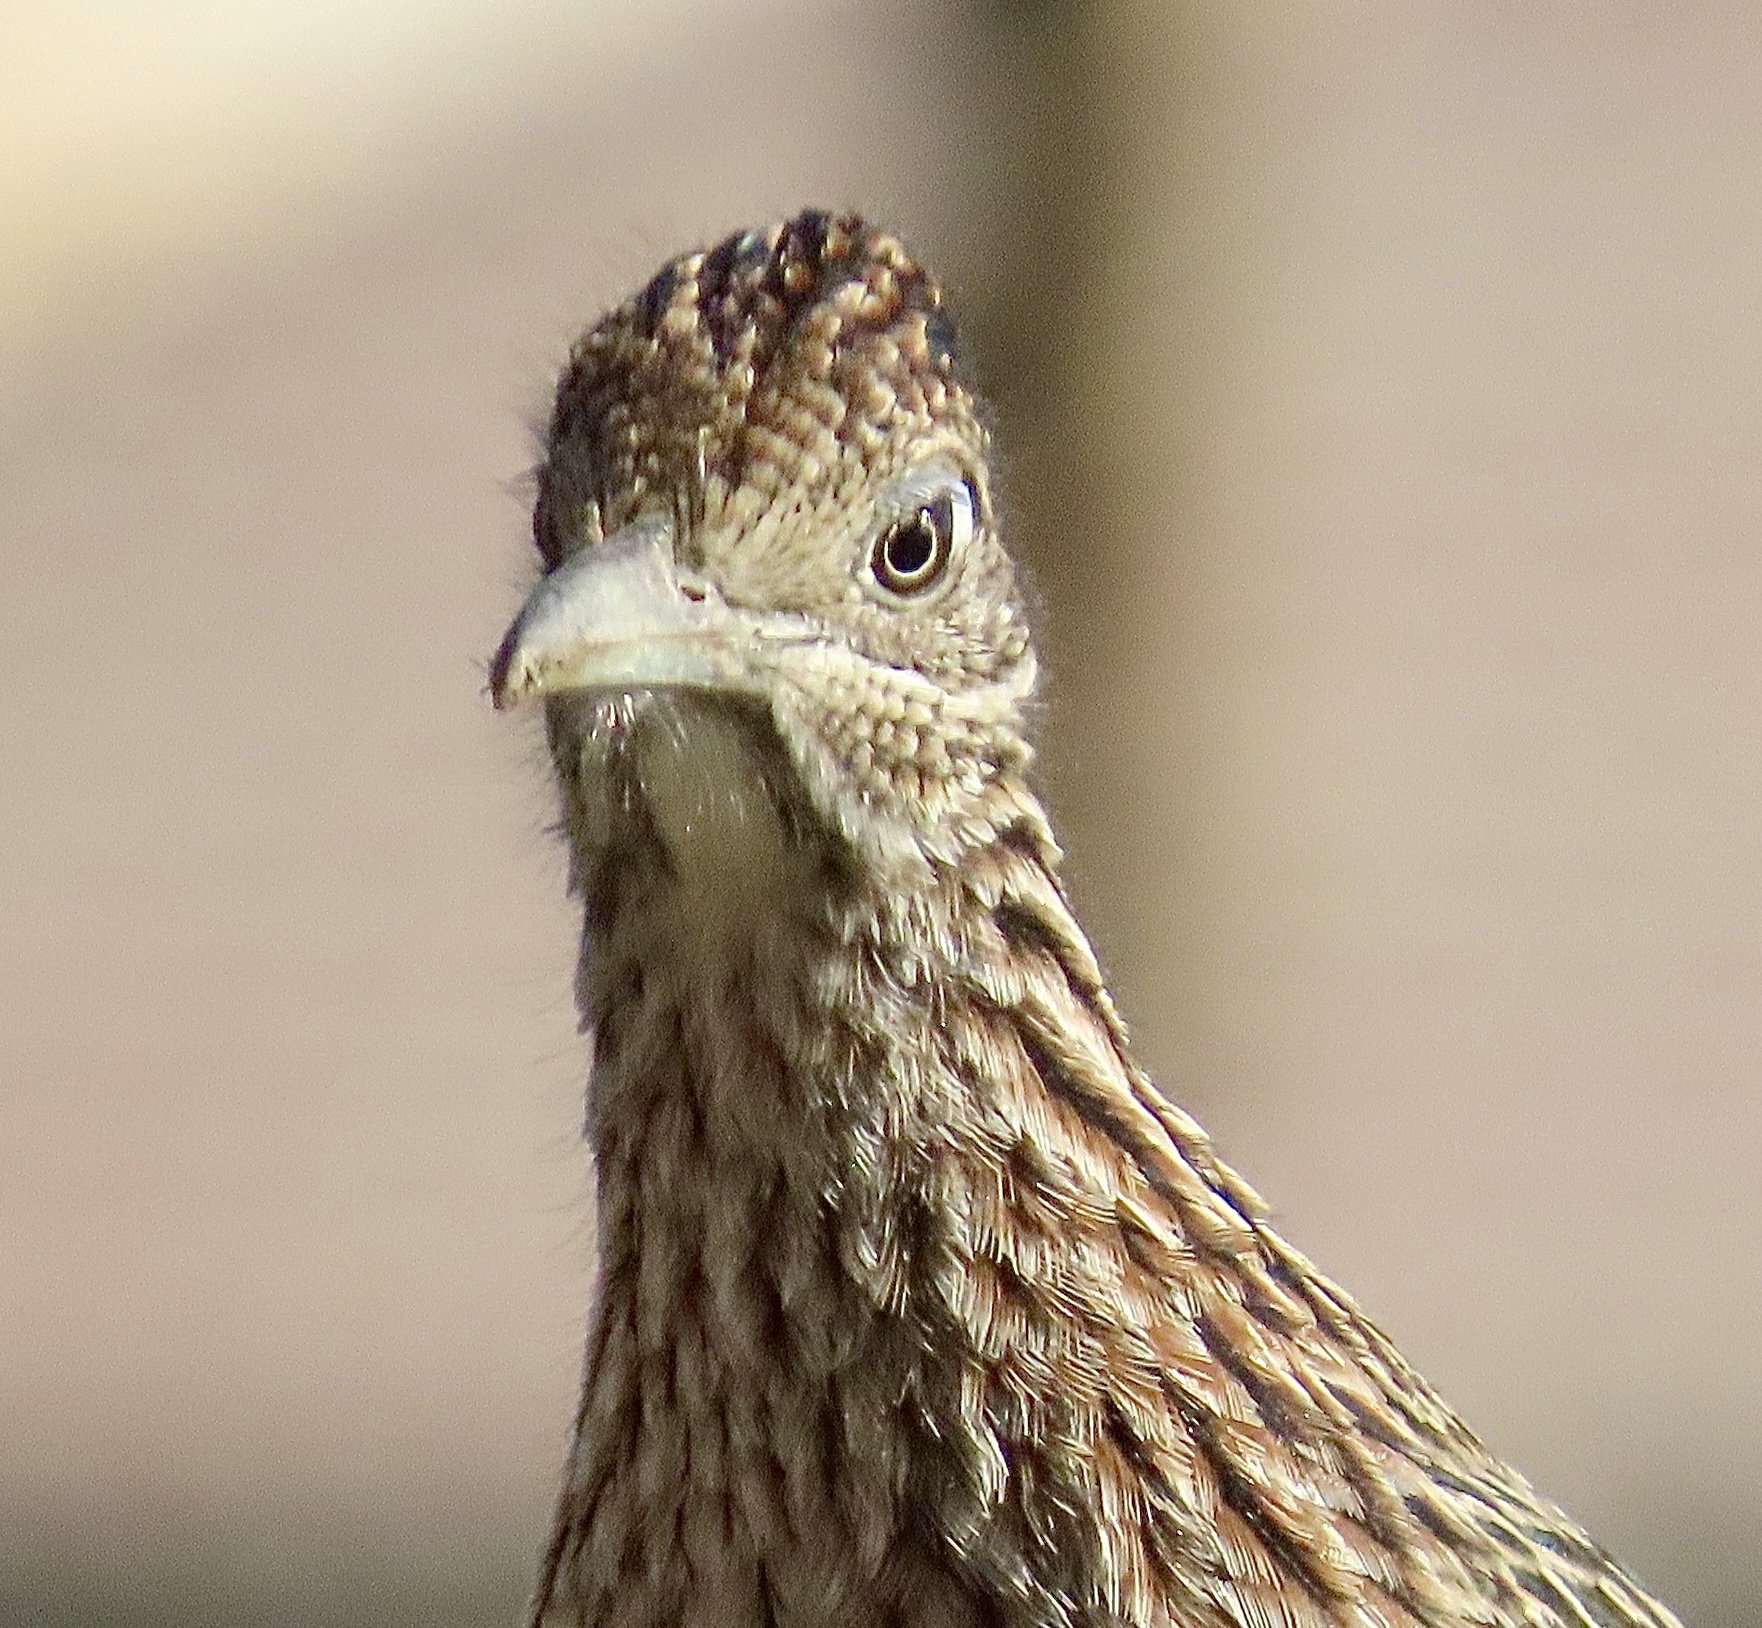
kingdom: Animalia
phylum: Chordata
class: Aves
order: Cuculiformes
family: Cuculidae
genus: Geococcyx
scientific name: Geococcyx californianus
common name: Greater roadrunner
